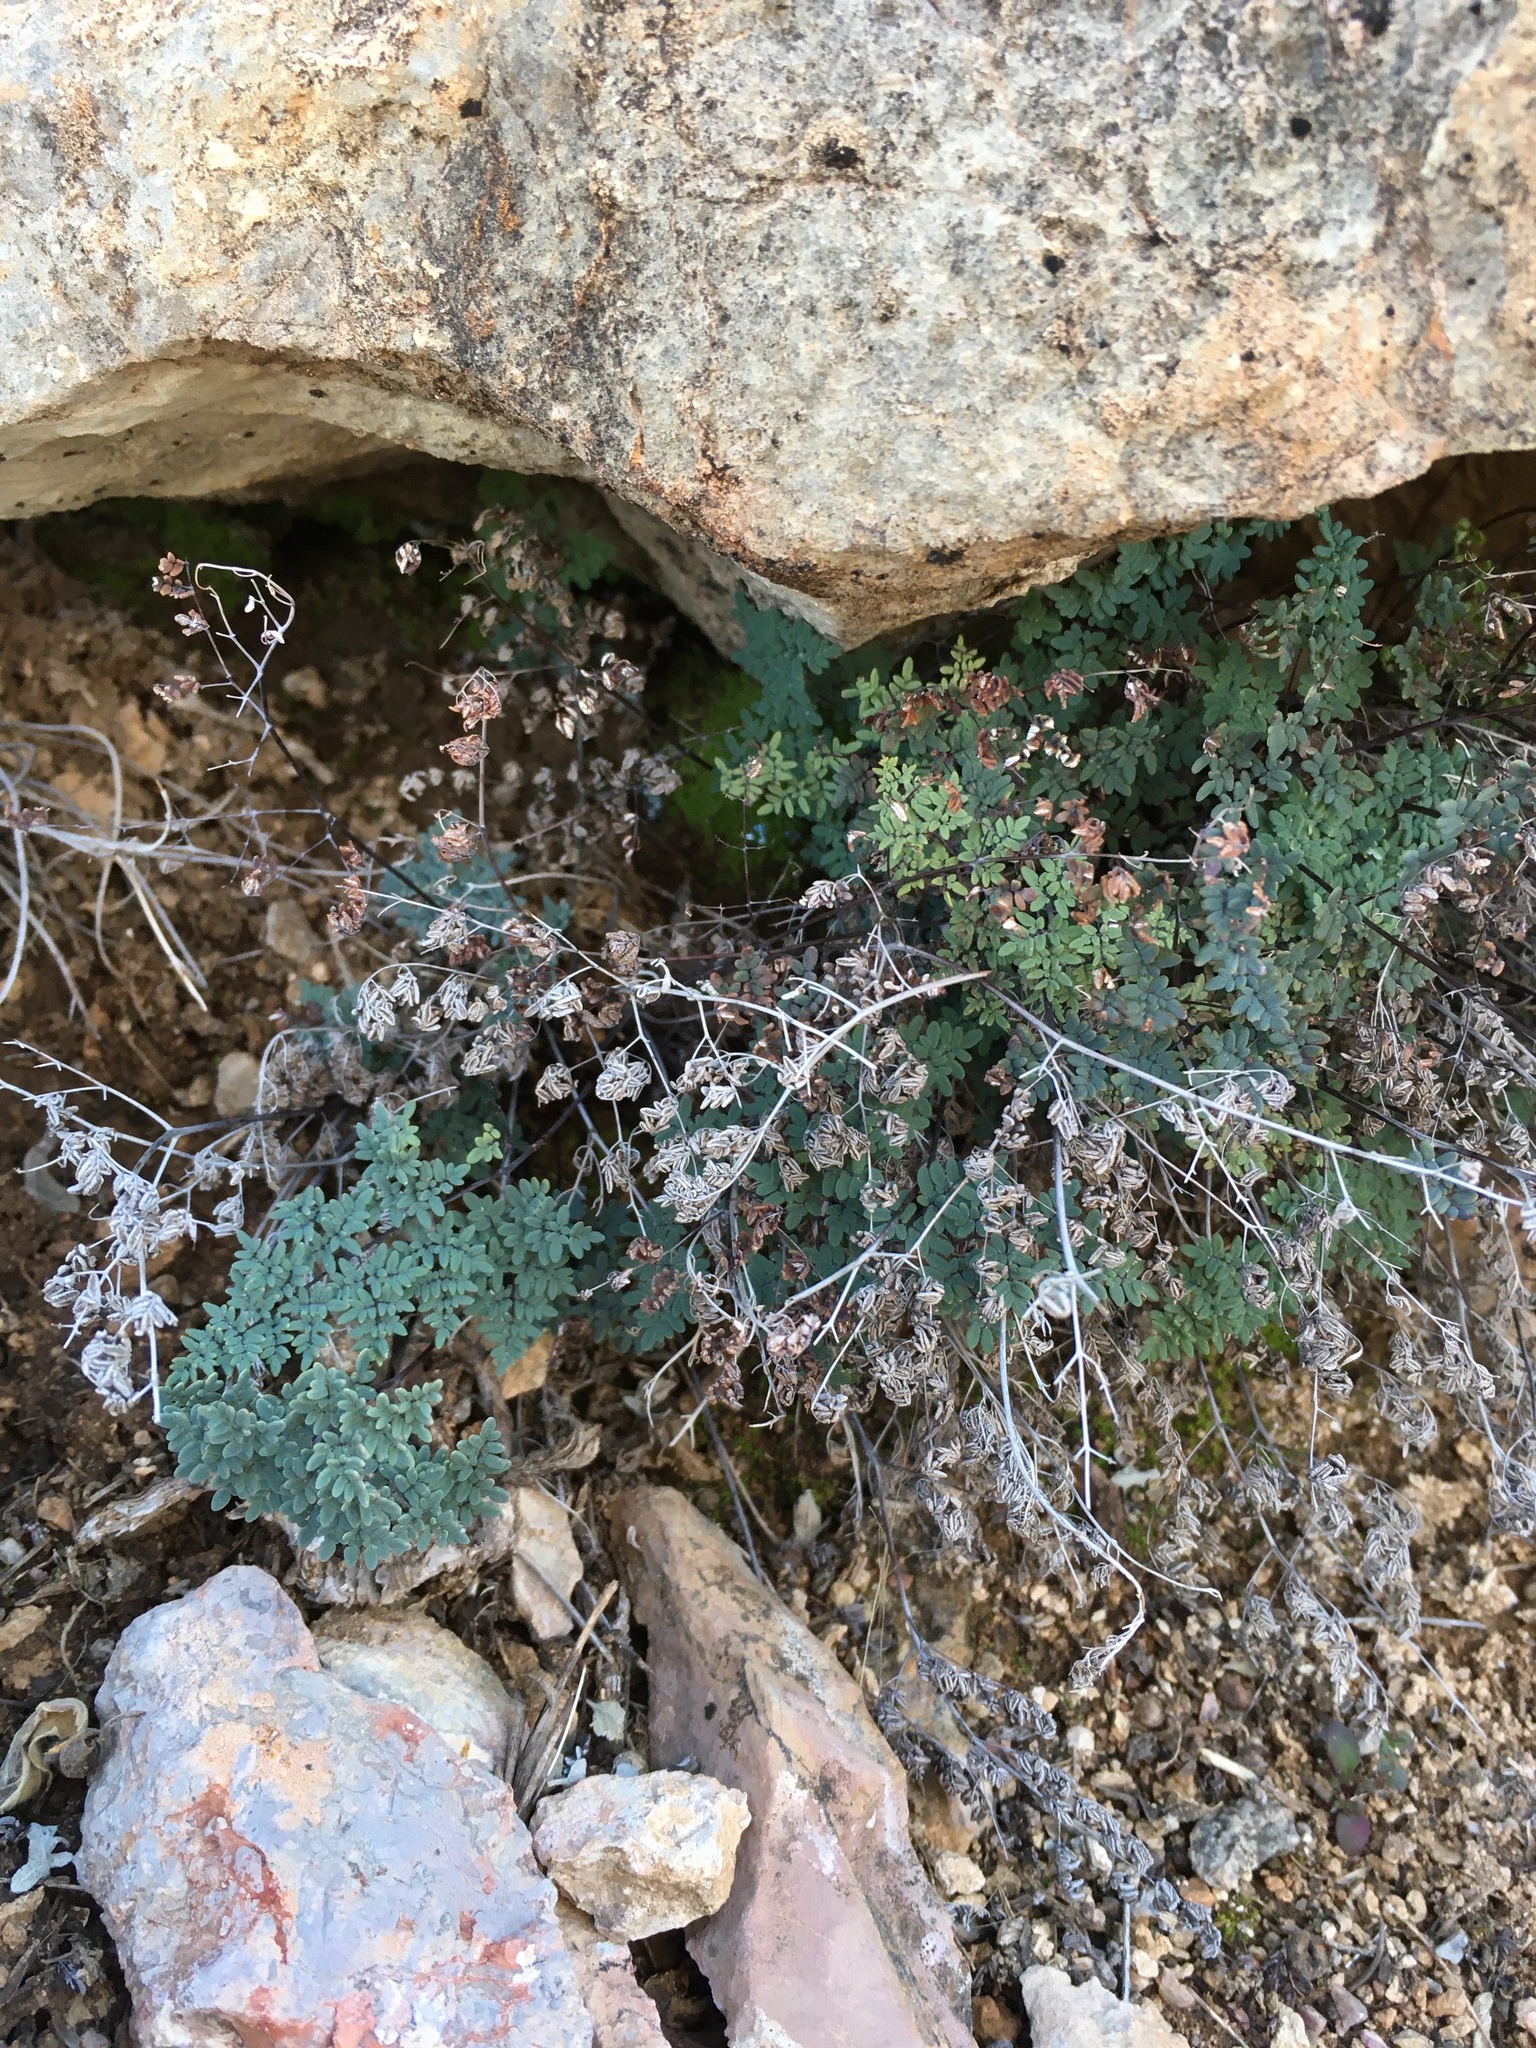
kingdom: Plantae
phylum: Tracheophyta
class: Polypodiopsida
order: Polypodiales
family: Pteridaceae
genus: Argyrochosma
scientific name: Argyrochosma limitanea
